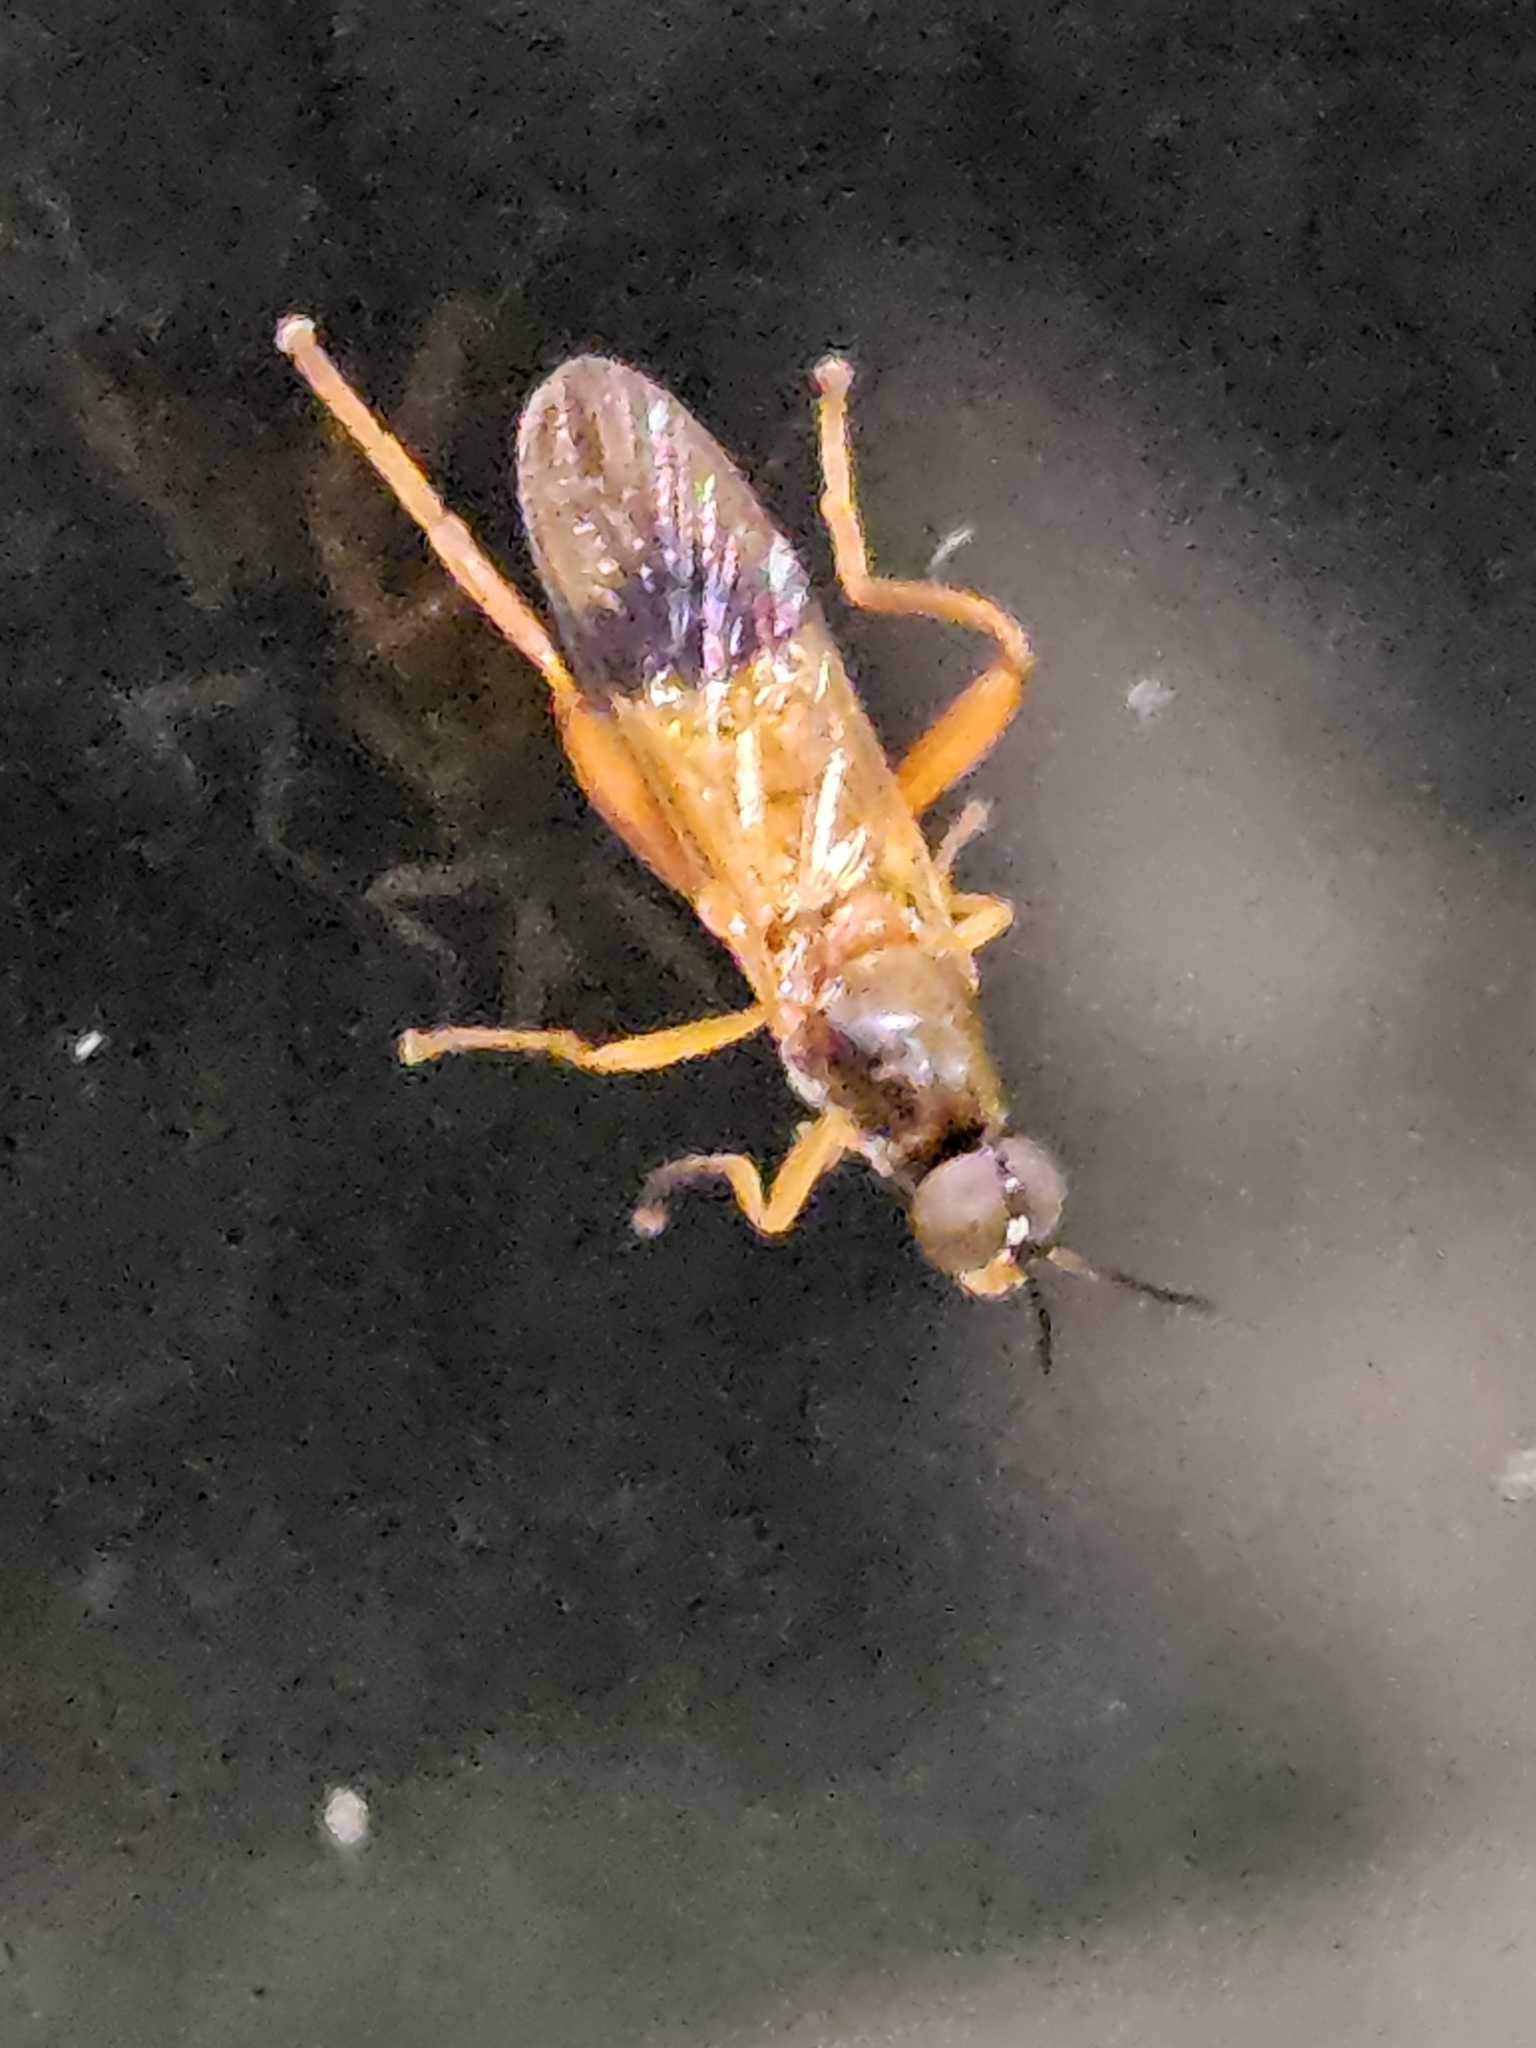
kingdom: Animalia
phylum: Arthropoda
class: Insecta
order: Diptera
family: Stratiomyidae
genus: Benhamyia
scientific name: Benhamyia apicalis
